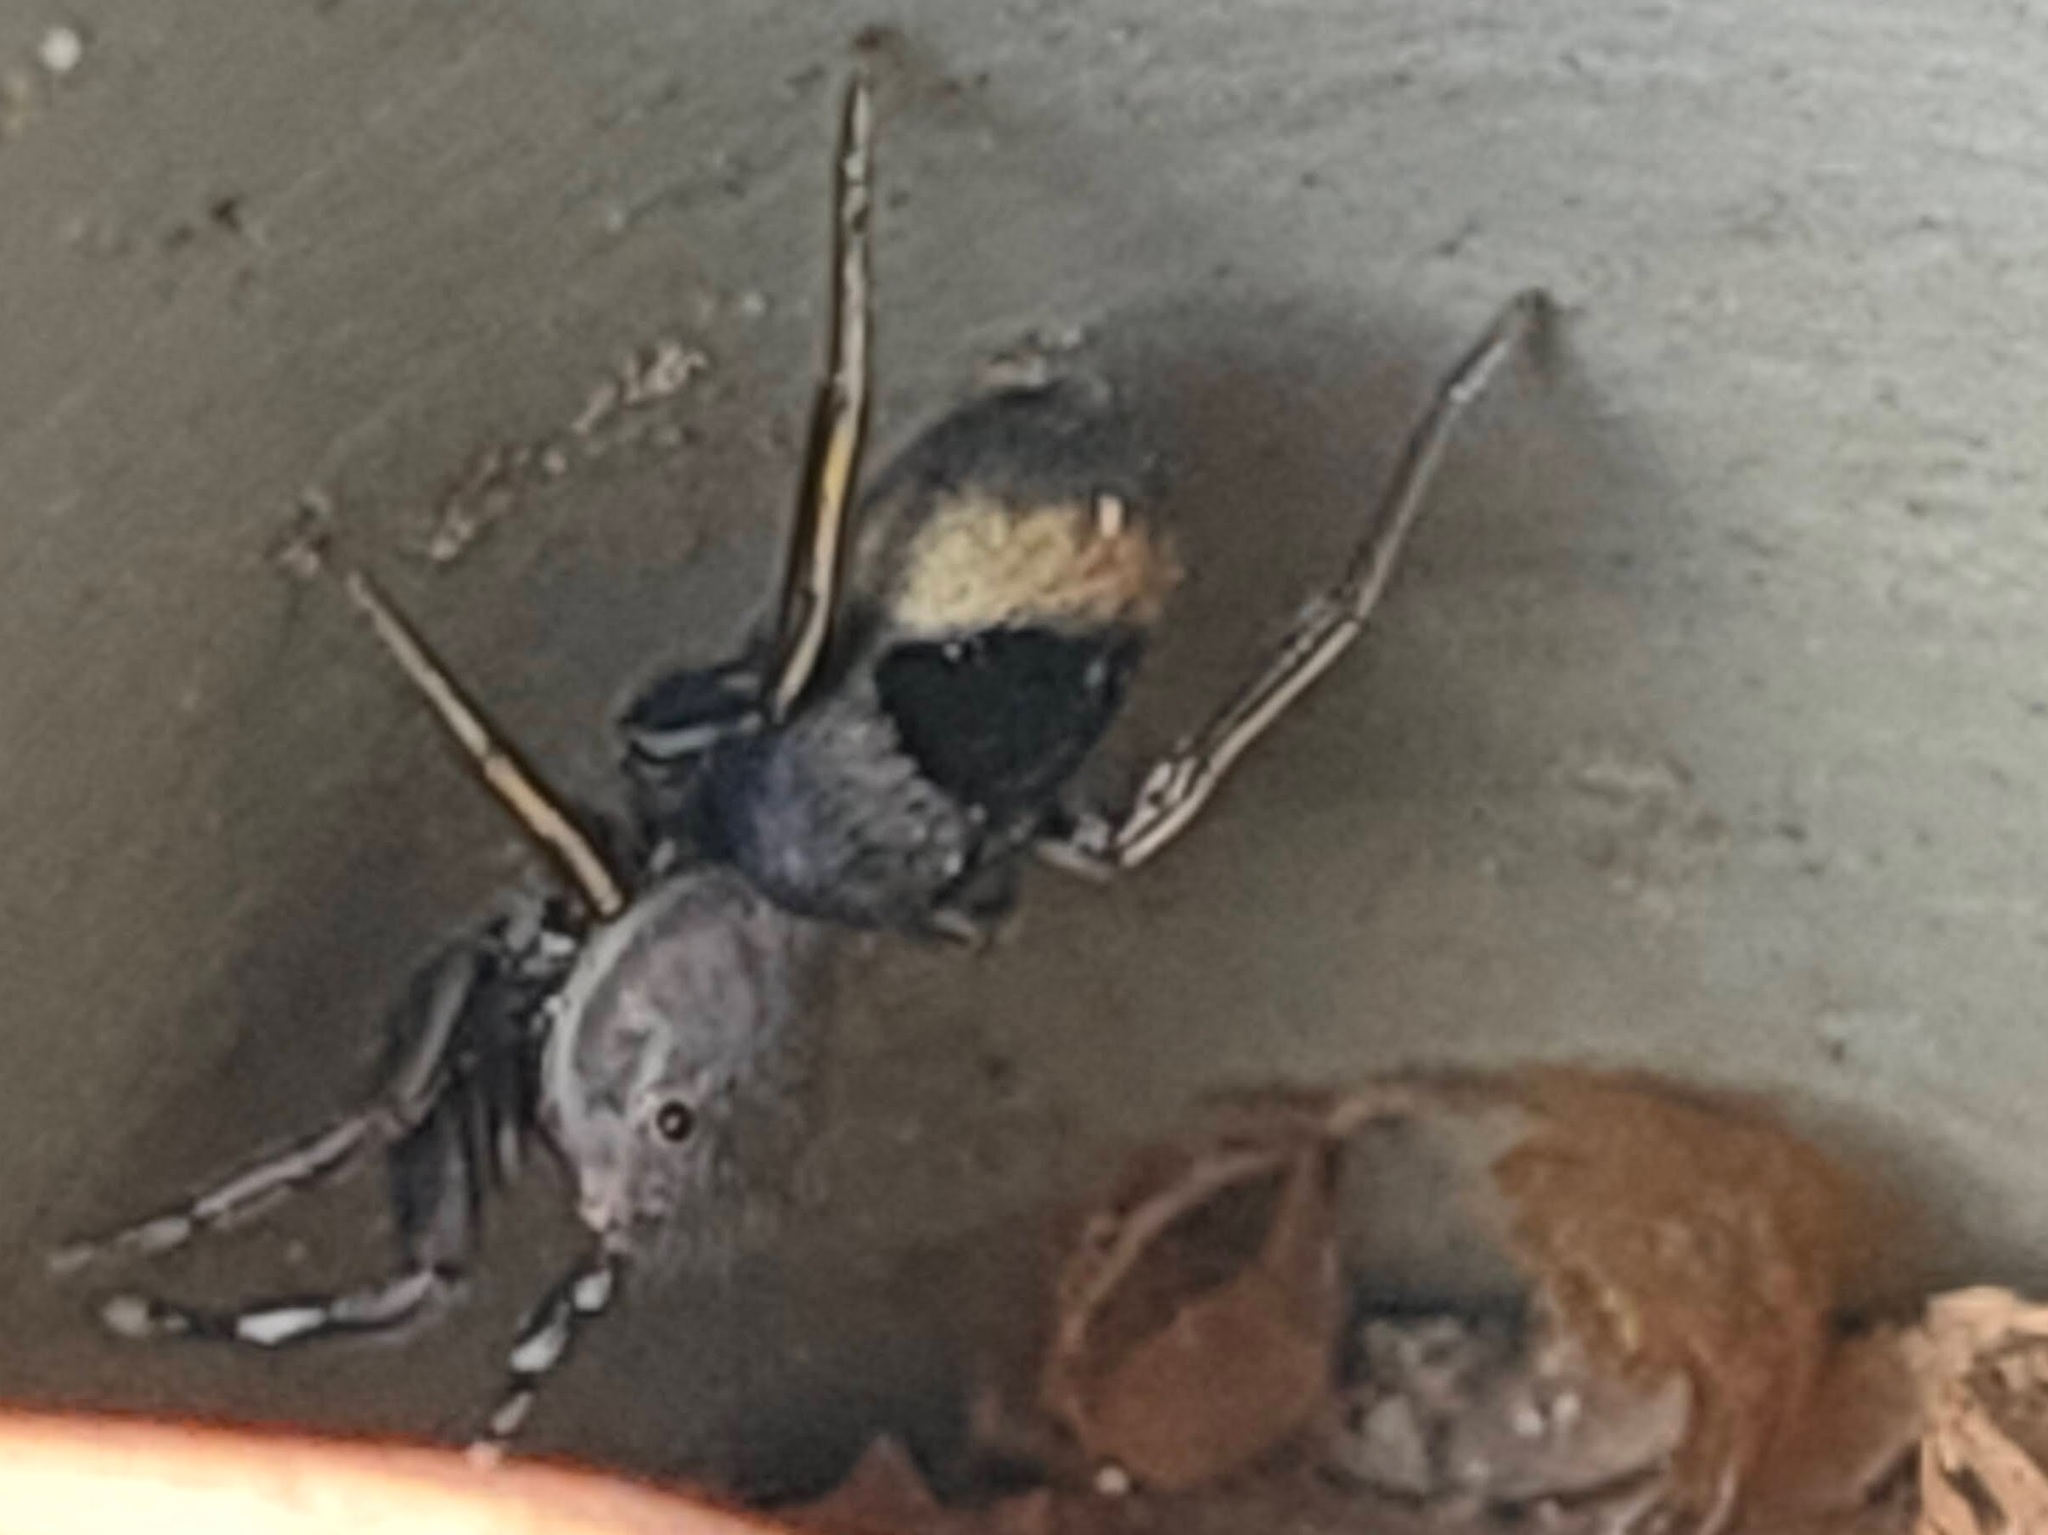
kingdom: Animalia
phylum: Arthropoda
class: Arachnida
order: Araneae
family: Salticidae
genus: Siler
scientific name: Siler cupreus
